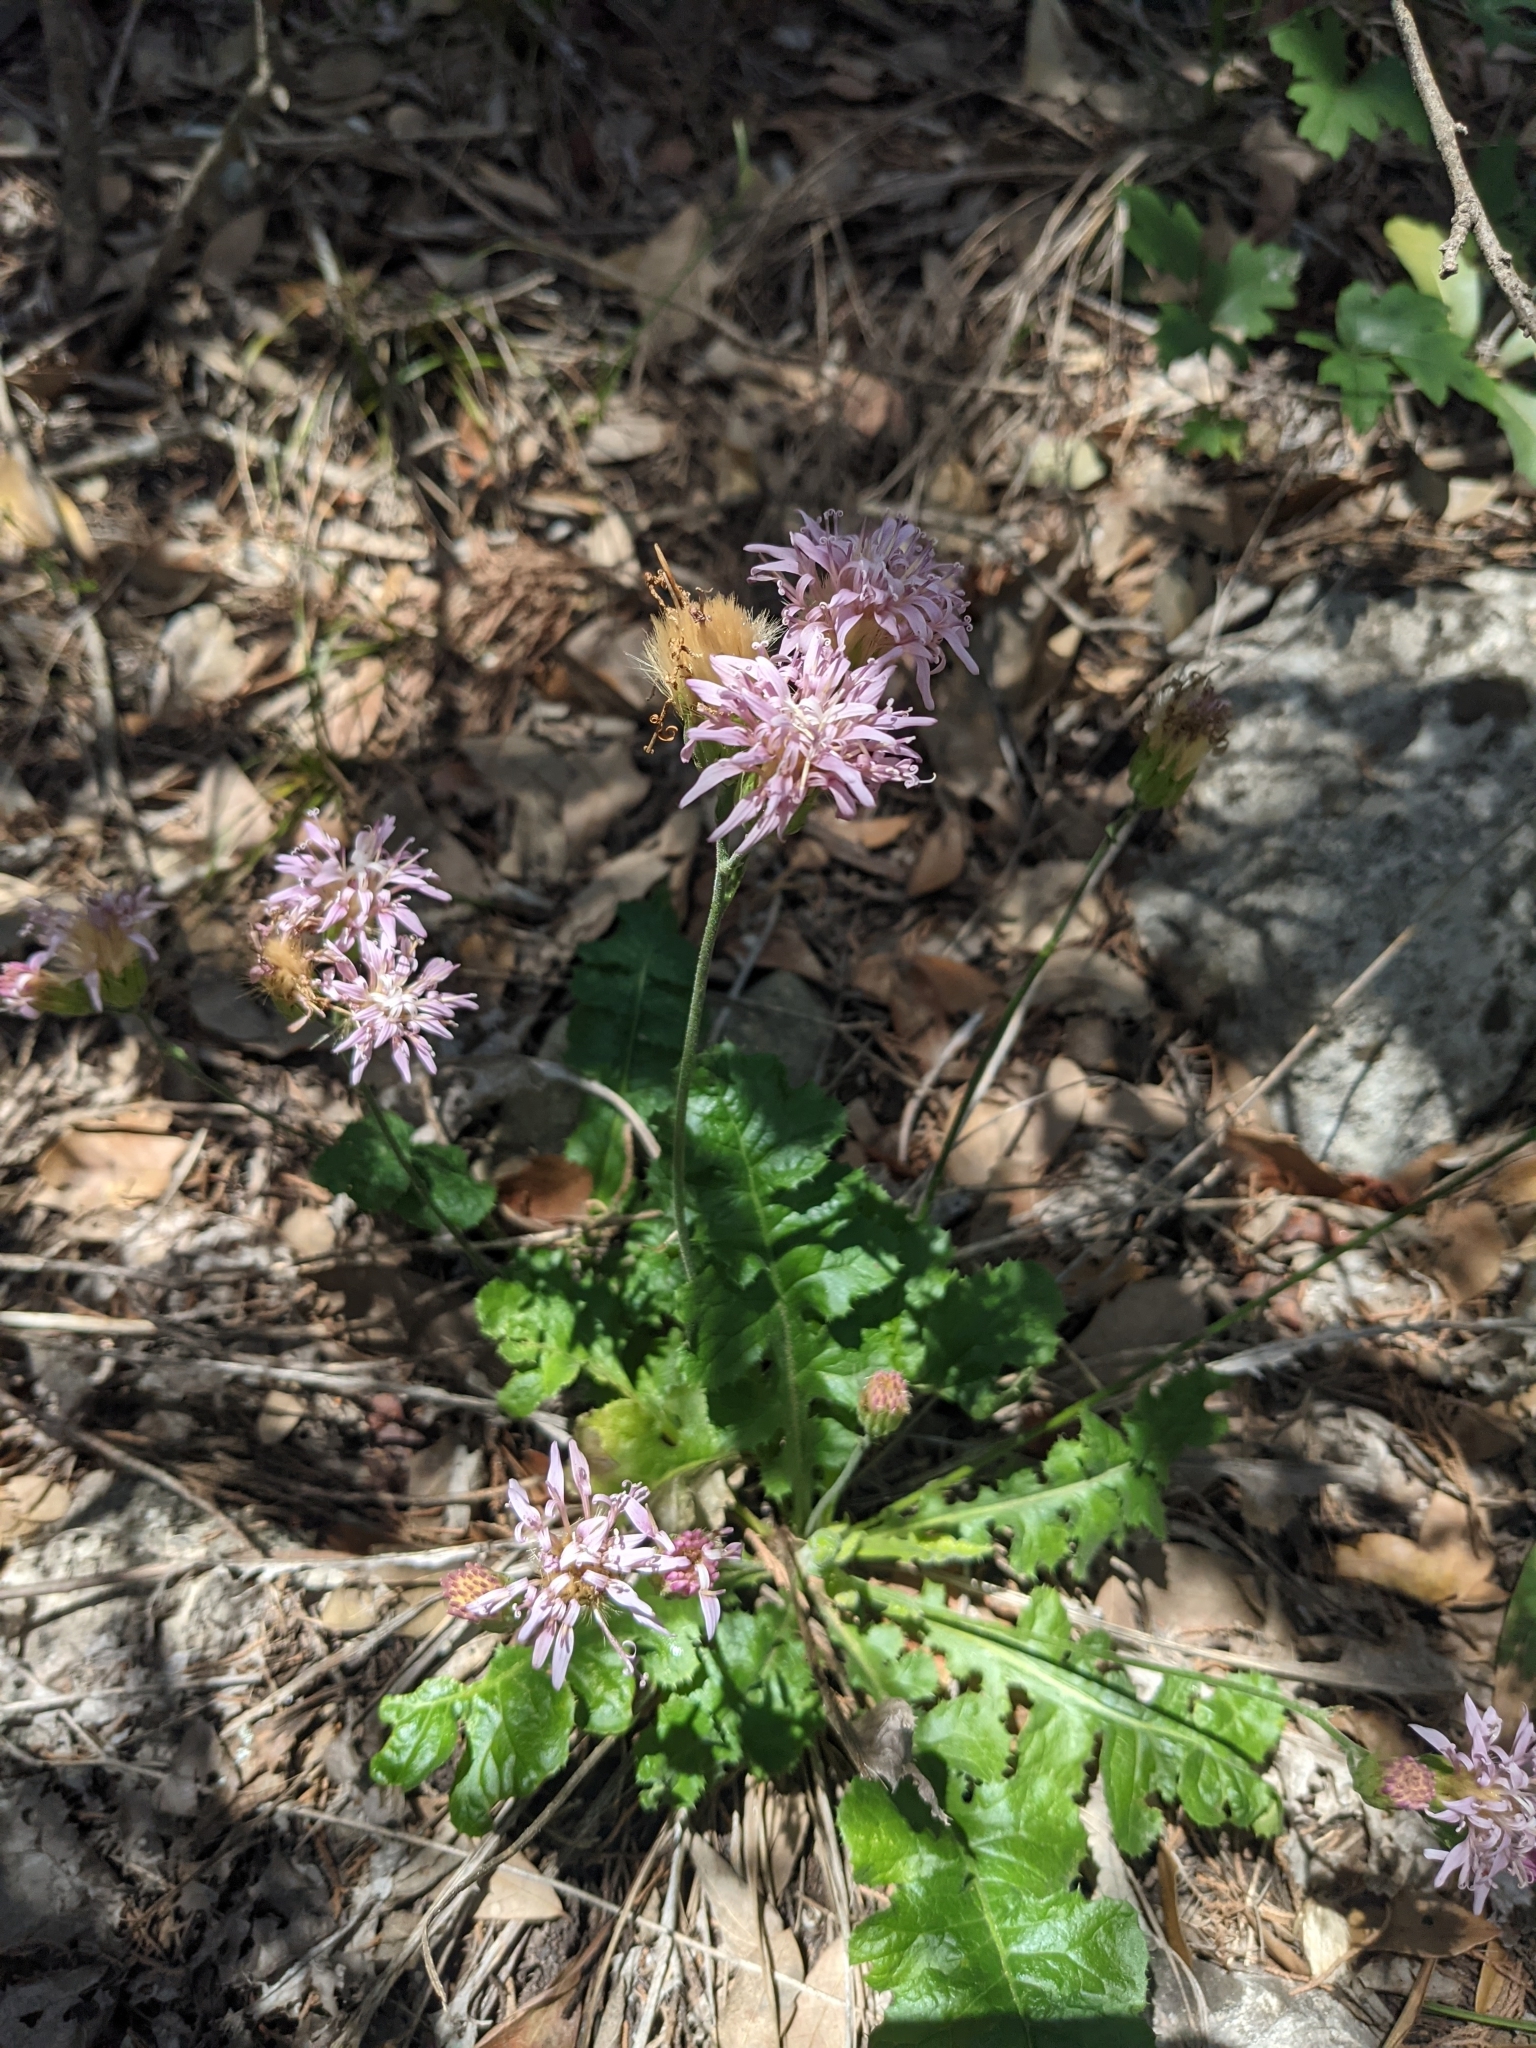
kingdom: Plantae
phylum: Tracheophyta
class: Magnoliopsida
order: Asterales
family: Asteraceae
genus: Acourtia
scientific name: Acourtia runcinata
